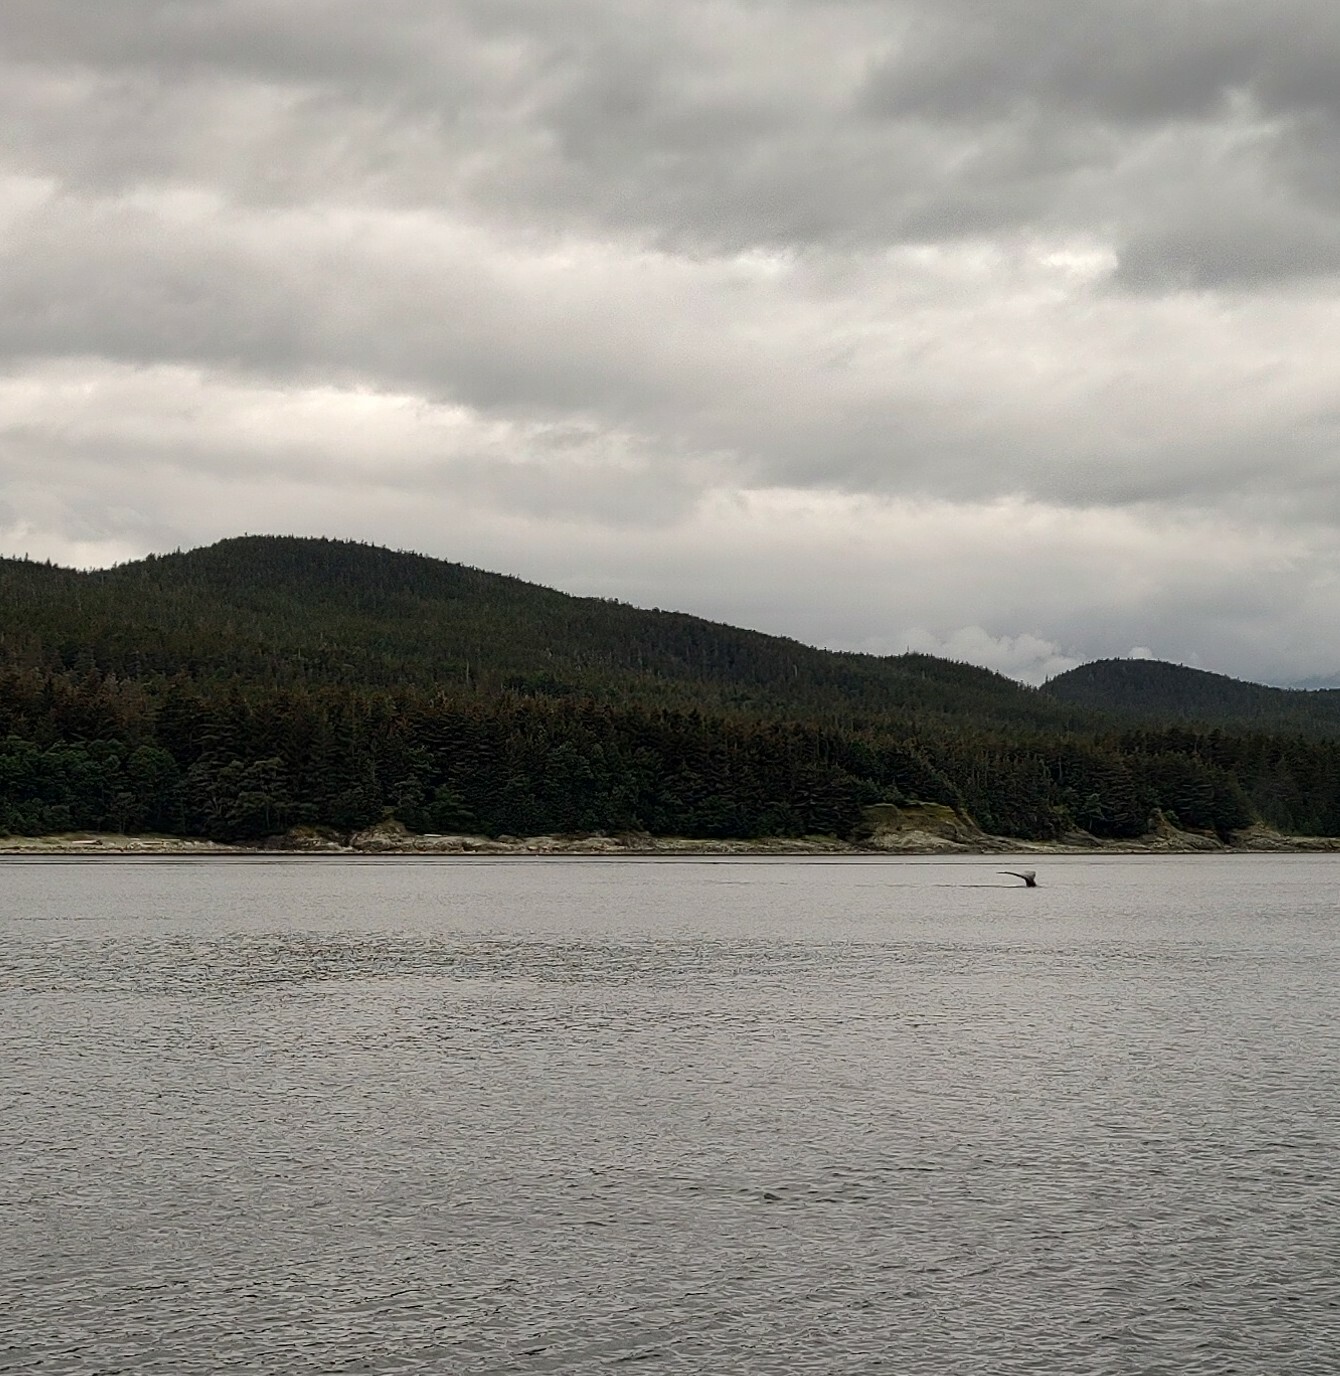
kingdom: Animalia
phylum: Chordata
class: Mammalia
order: Cetacea
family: Balaenopteridae
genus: Megaptera
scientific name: Megaptera novaeangliae
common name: Humpback whale
